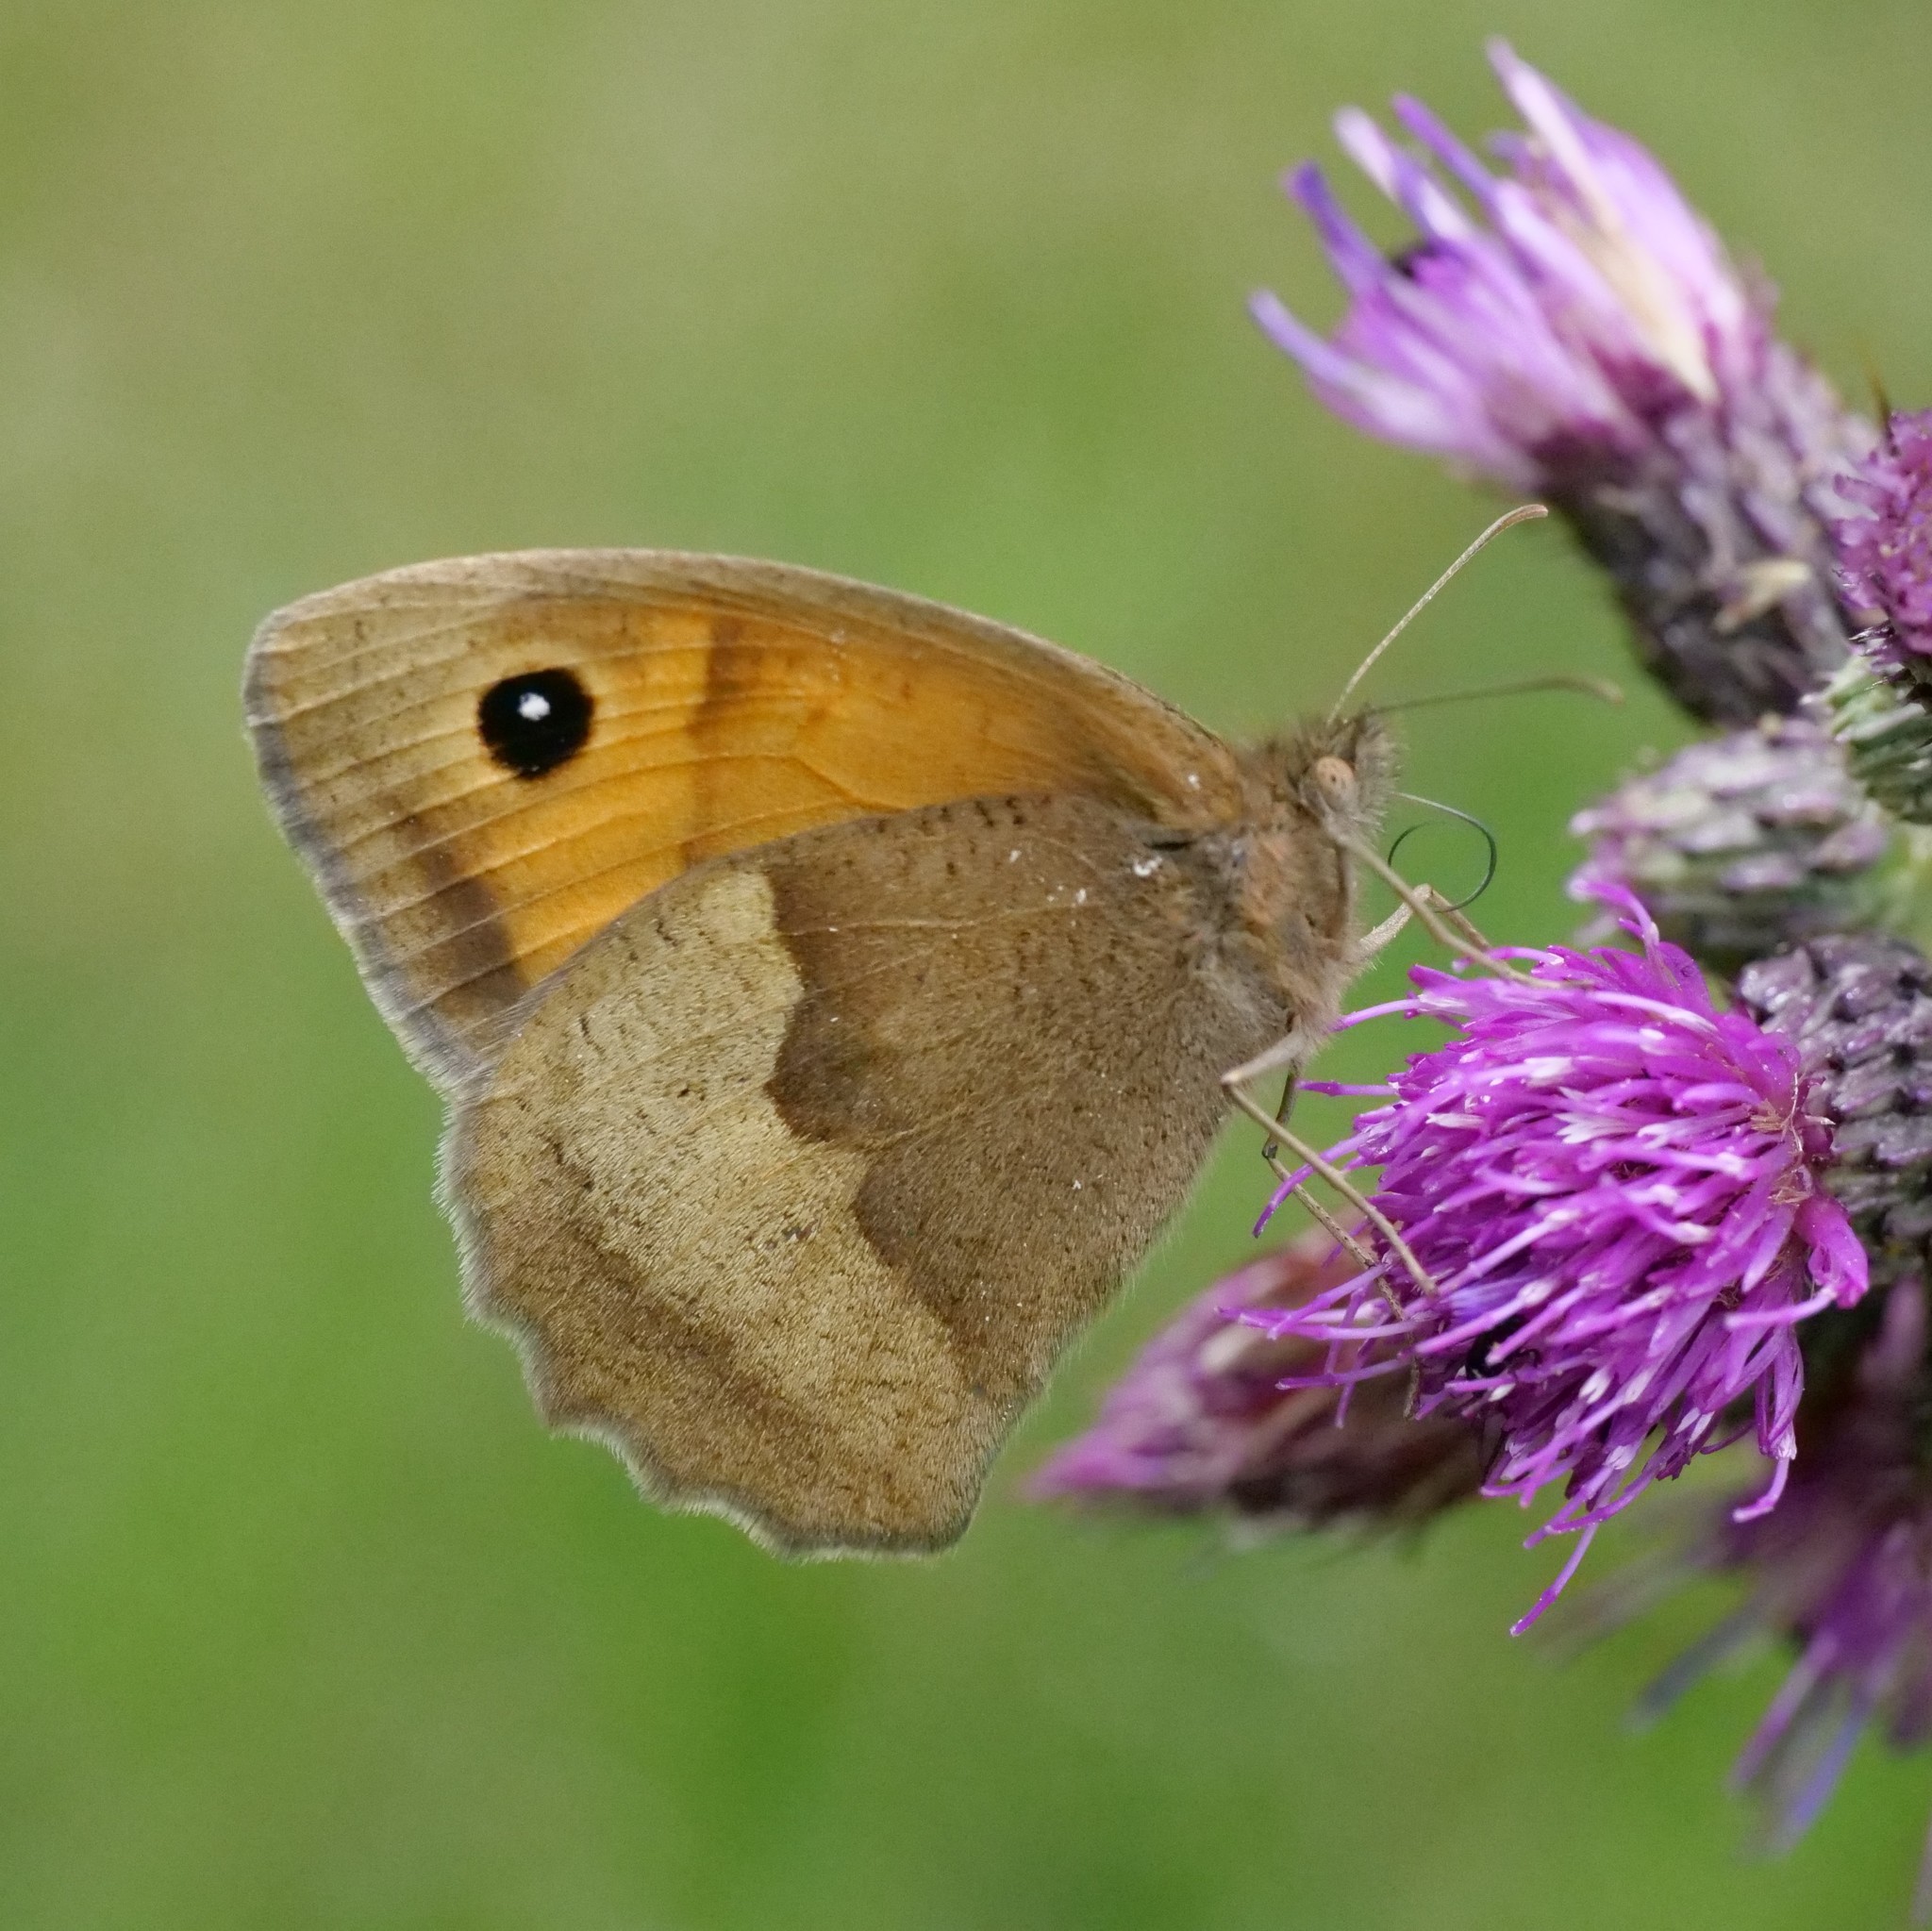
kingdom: Animalia
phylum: Arthropoda
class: Insecta
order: Lepidoptera
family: Nymphalidae
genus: Maniola
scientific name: Maniola jurtina
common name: Meadow brown
